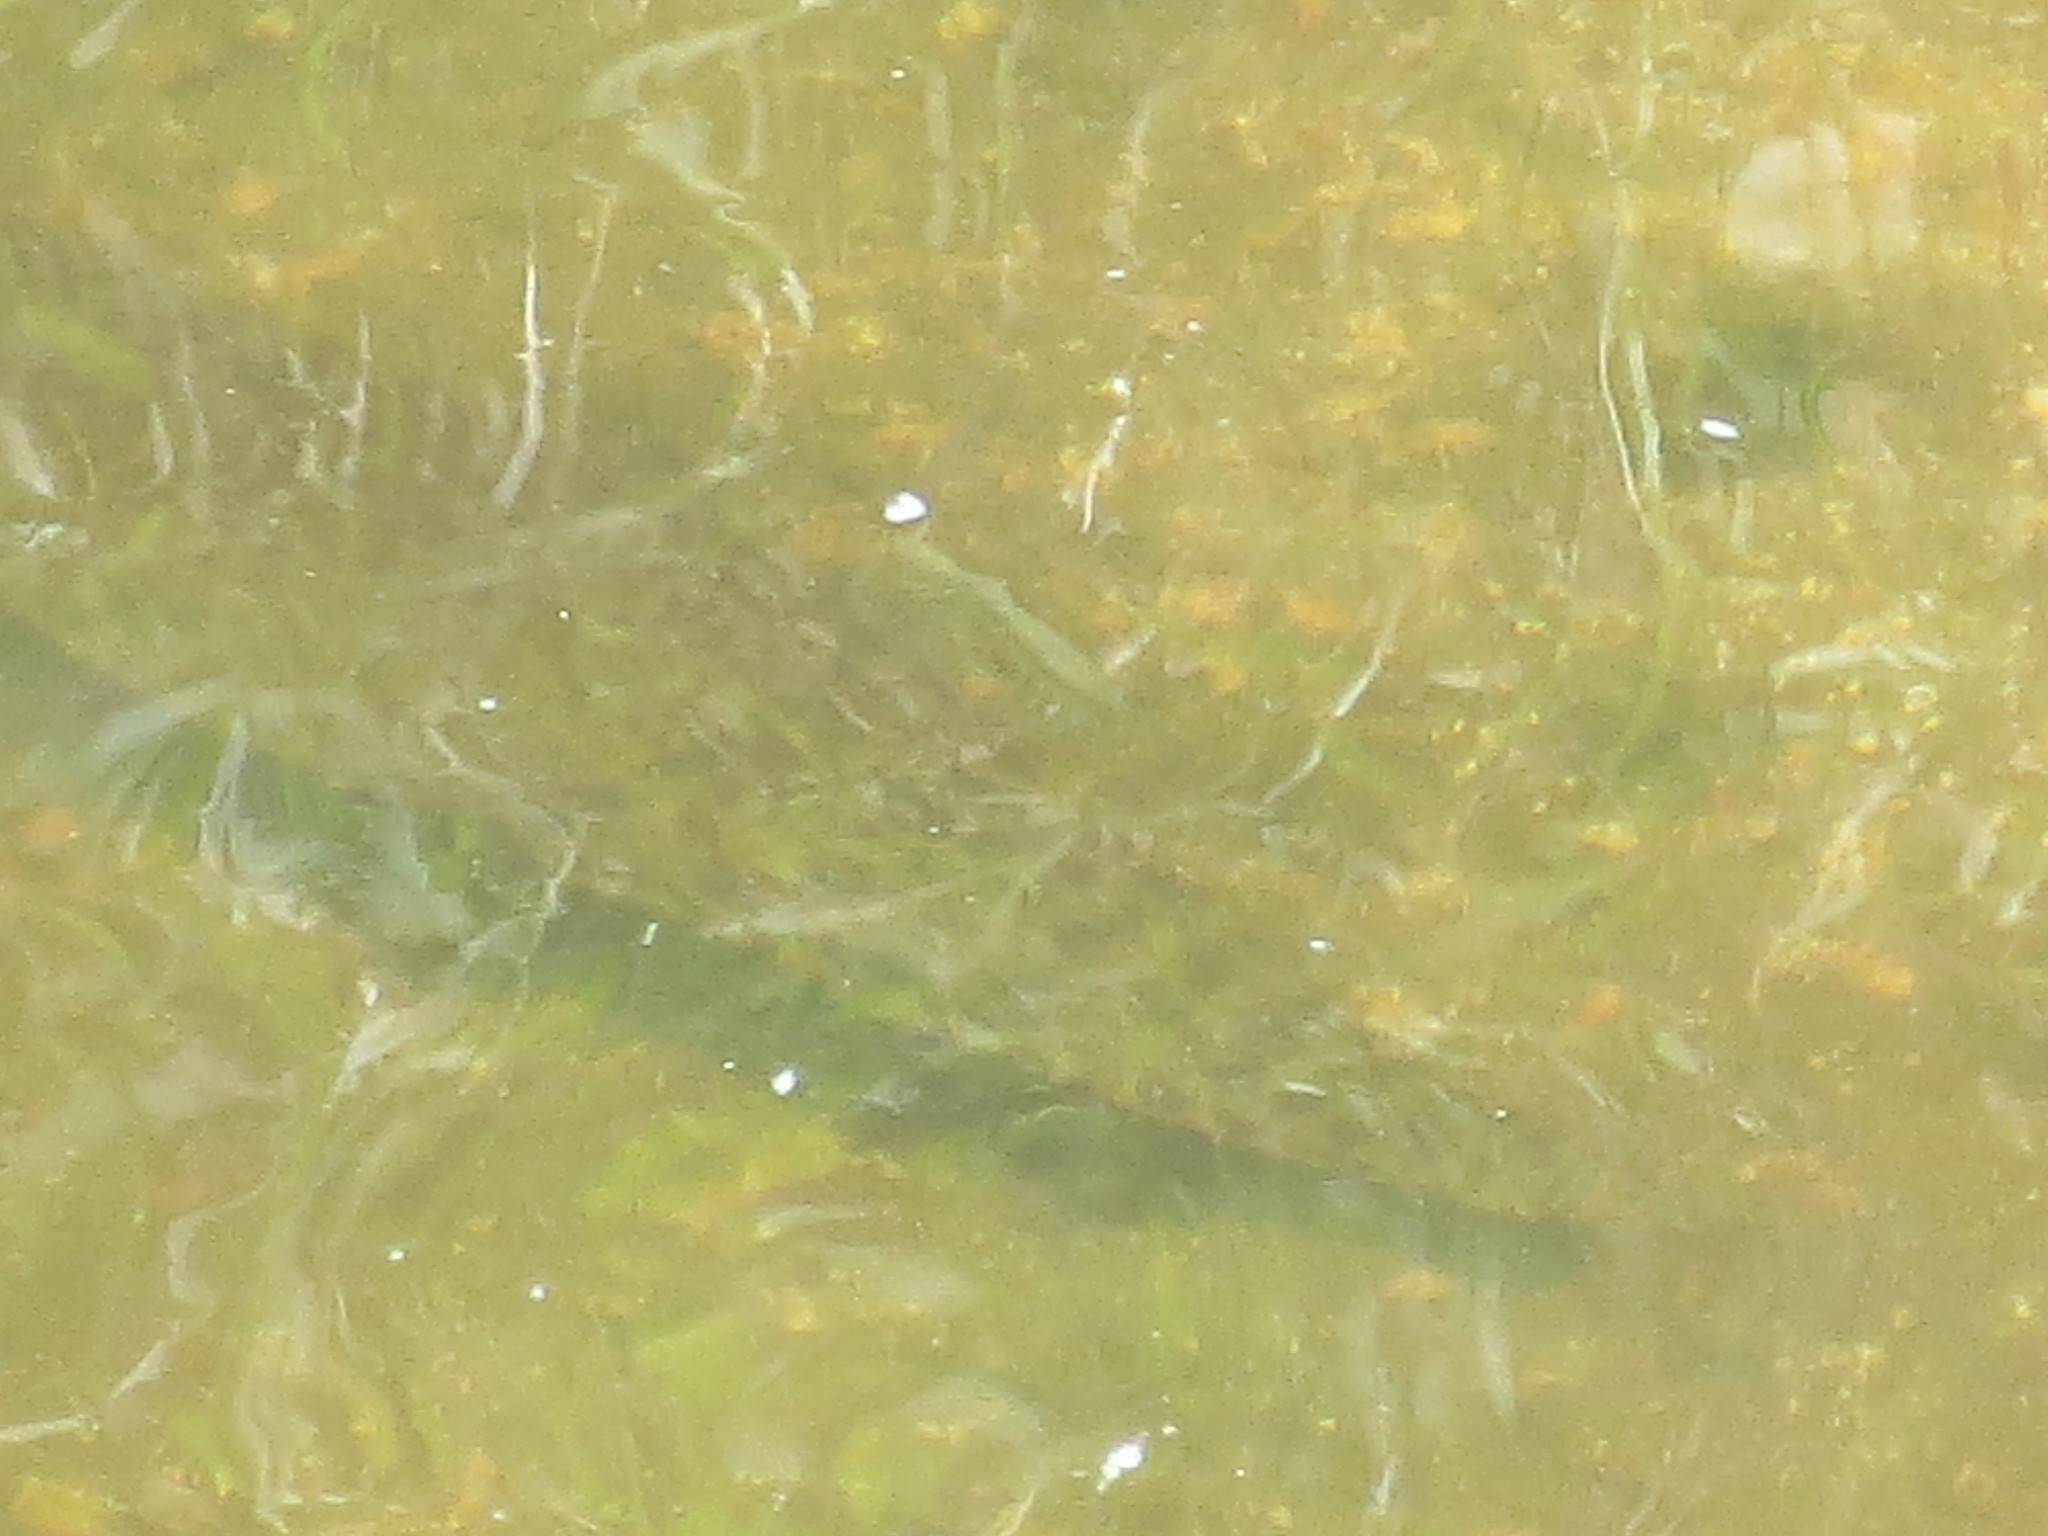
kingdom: Animalia
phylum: Chordata
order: Lepisosteiformes
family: Lepisosteidae
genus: Lepisosteus
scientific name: Lepisosteus platyrhincus
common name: Florida gar
